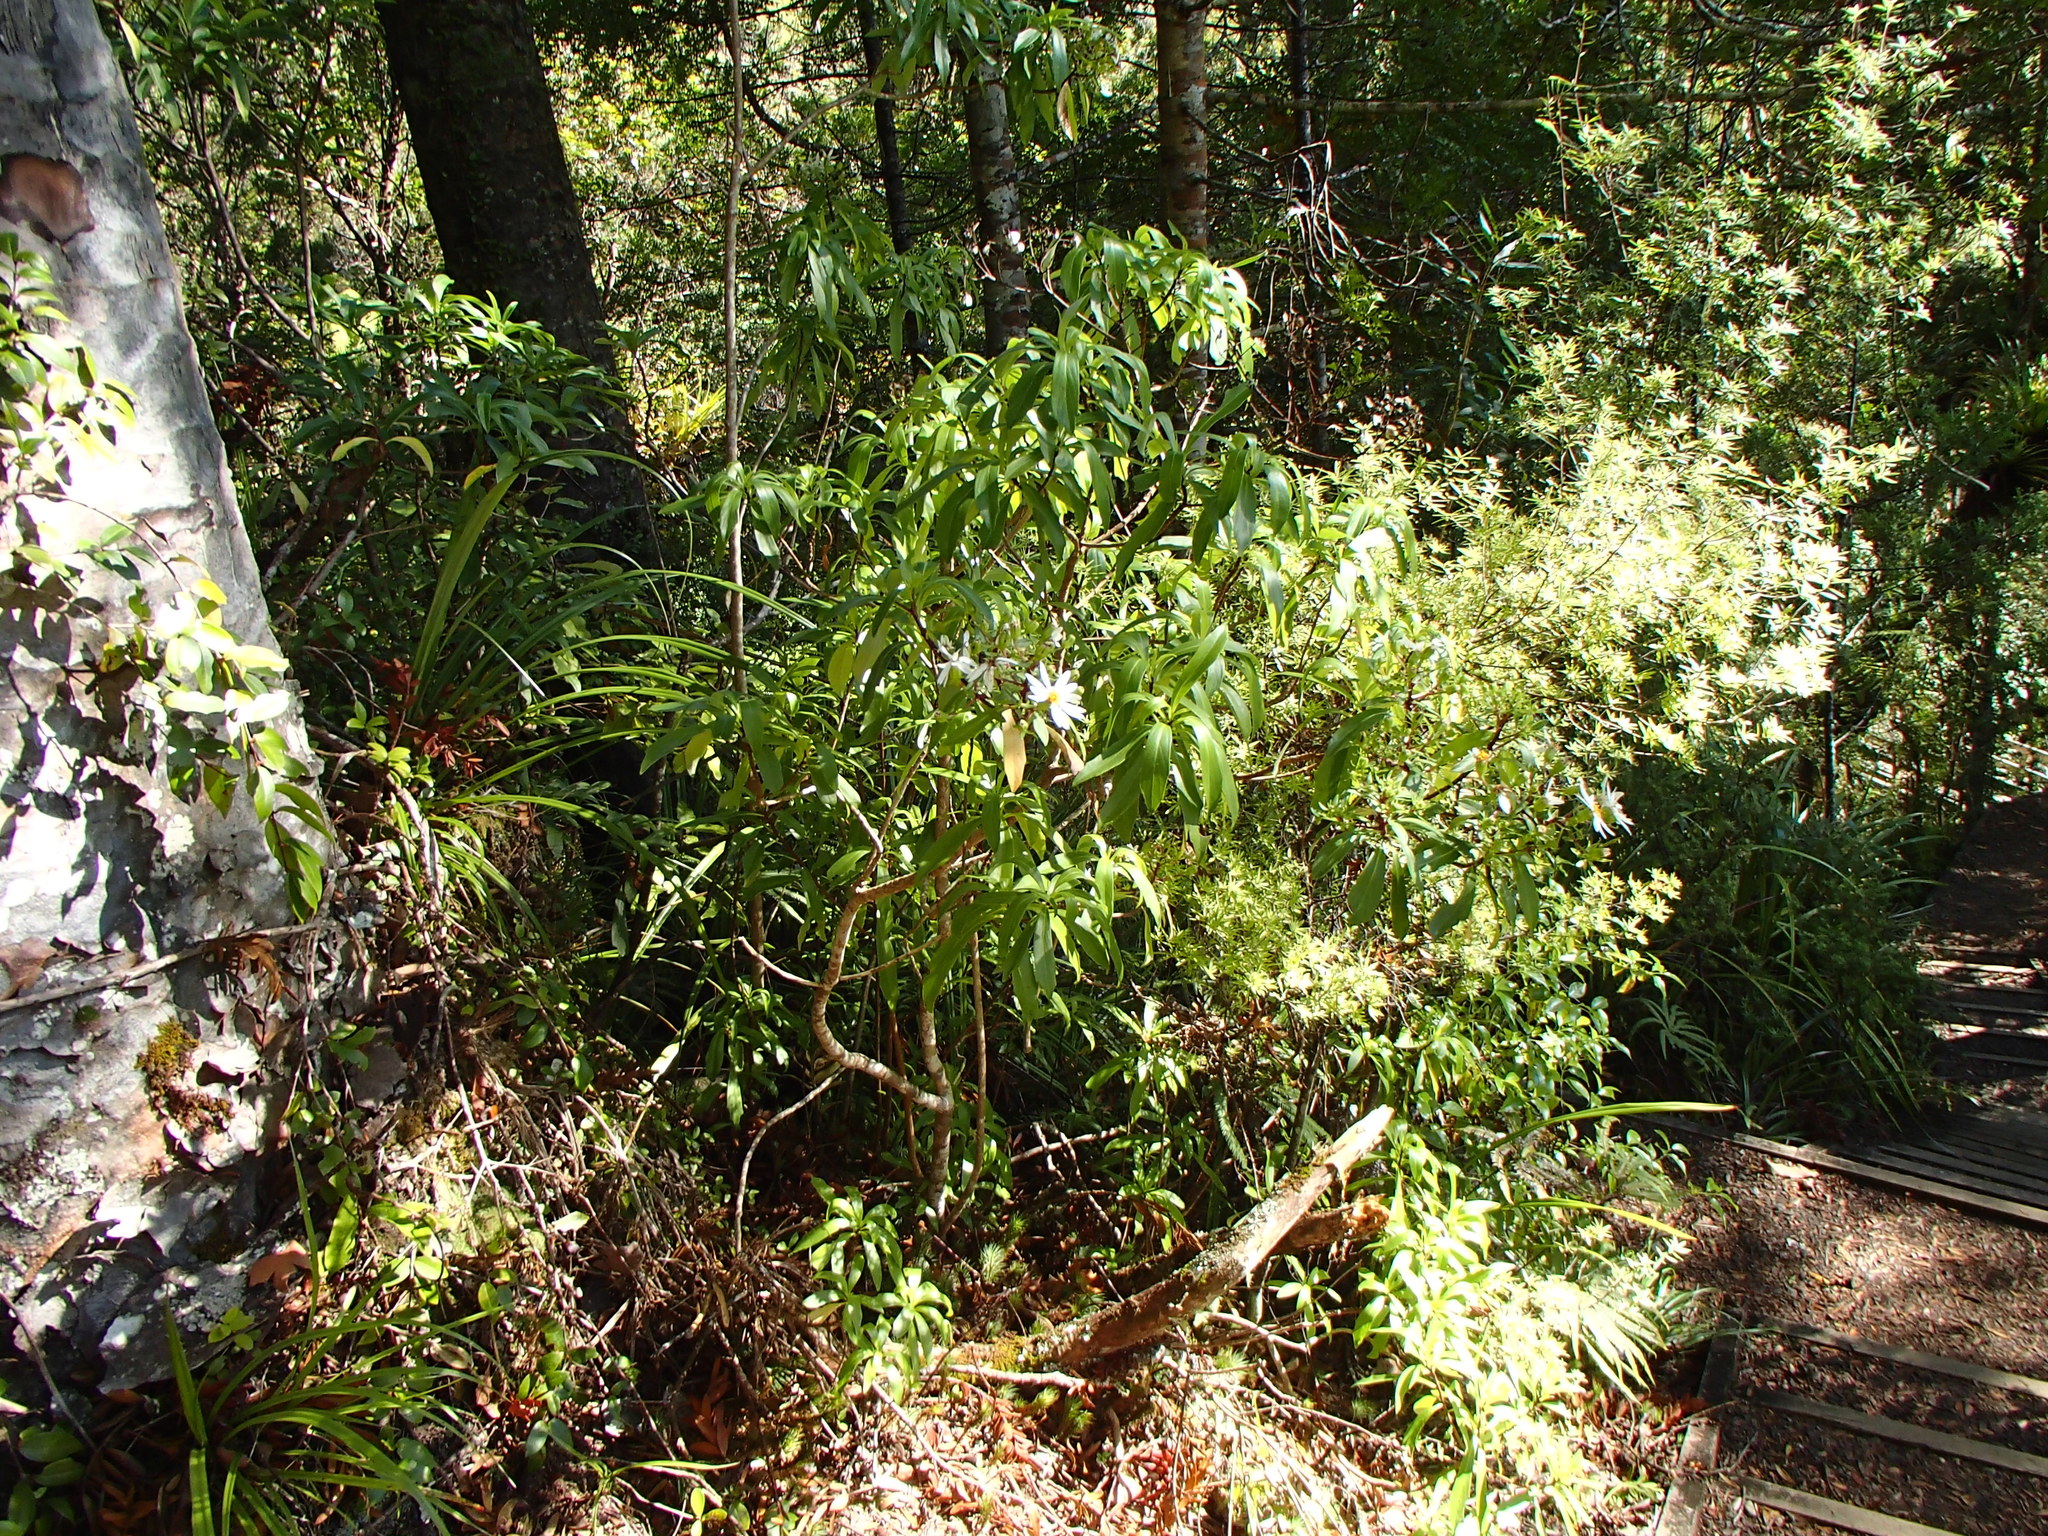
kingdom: Plantae
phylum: Tracheophyta
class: Magnoliopsida
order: Asterales
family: Asteraceae
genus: Brachyglottis
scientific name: Brachyglottis kirkii
